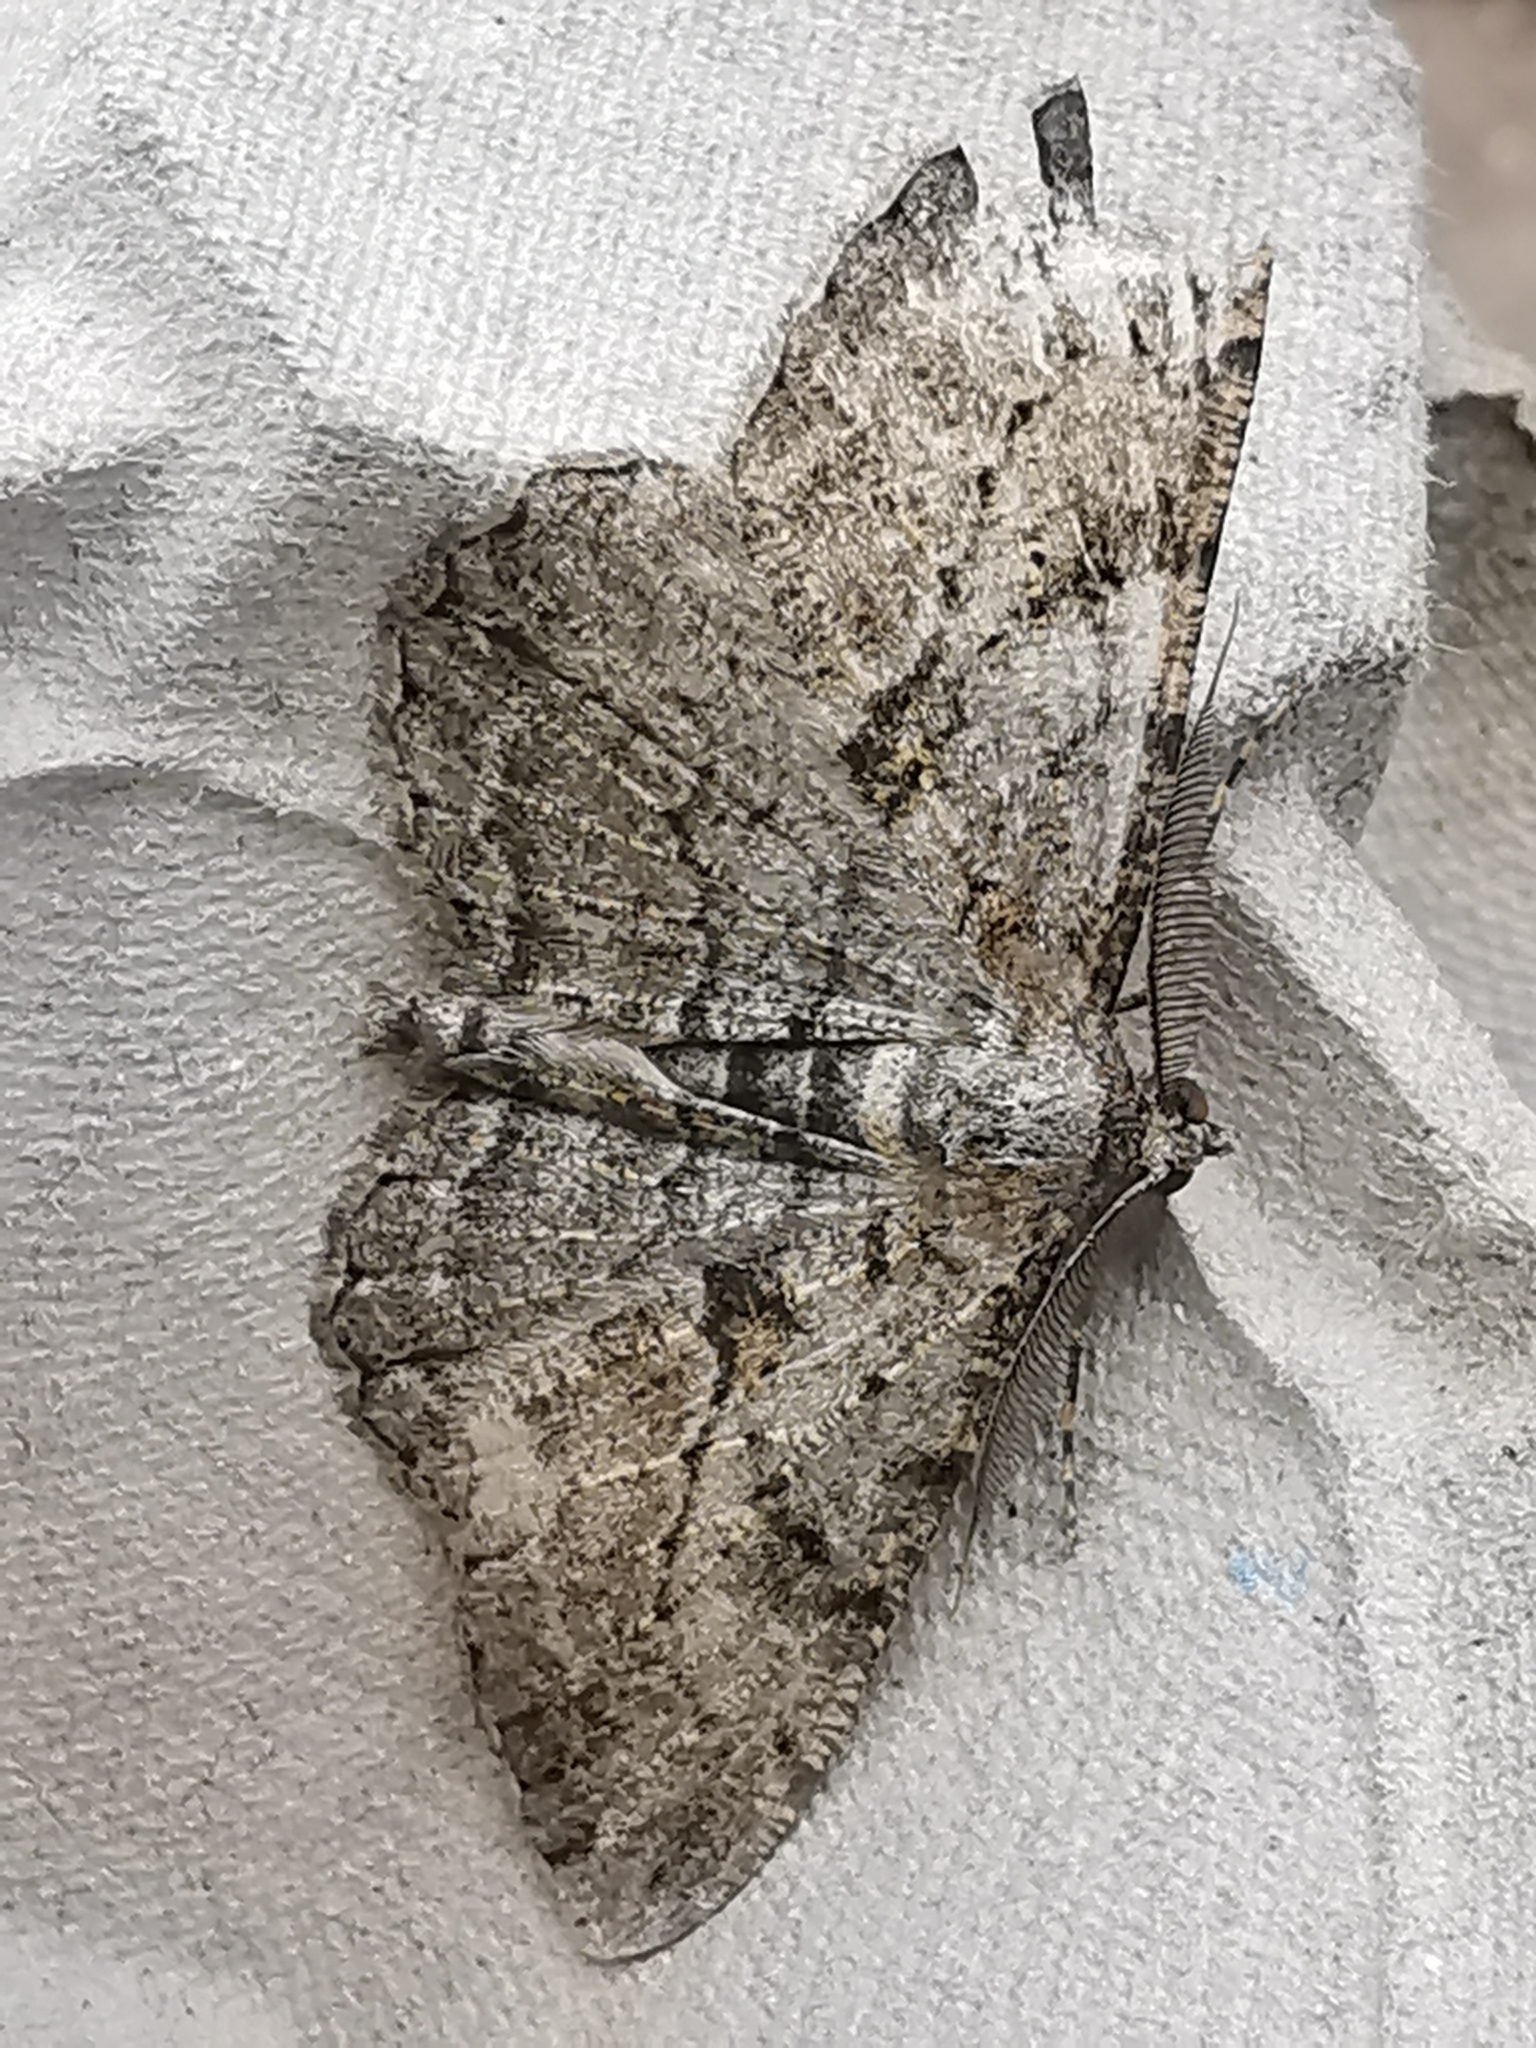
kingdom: Animalia
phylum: Arthropoda
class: Insecta
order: Lepidoptera
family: Geometridae
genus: Peribatodes
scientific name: Peribatodes rhomboidaria
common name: Willow beauty
